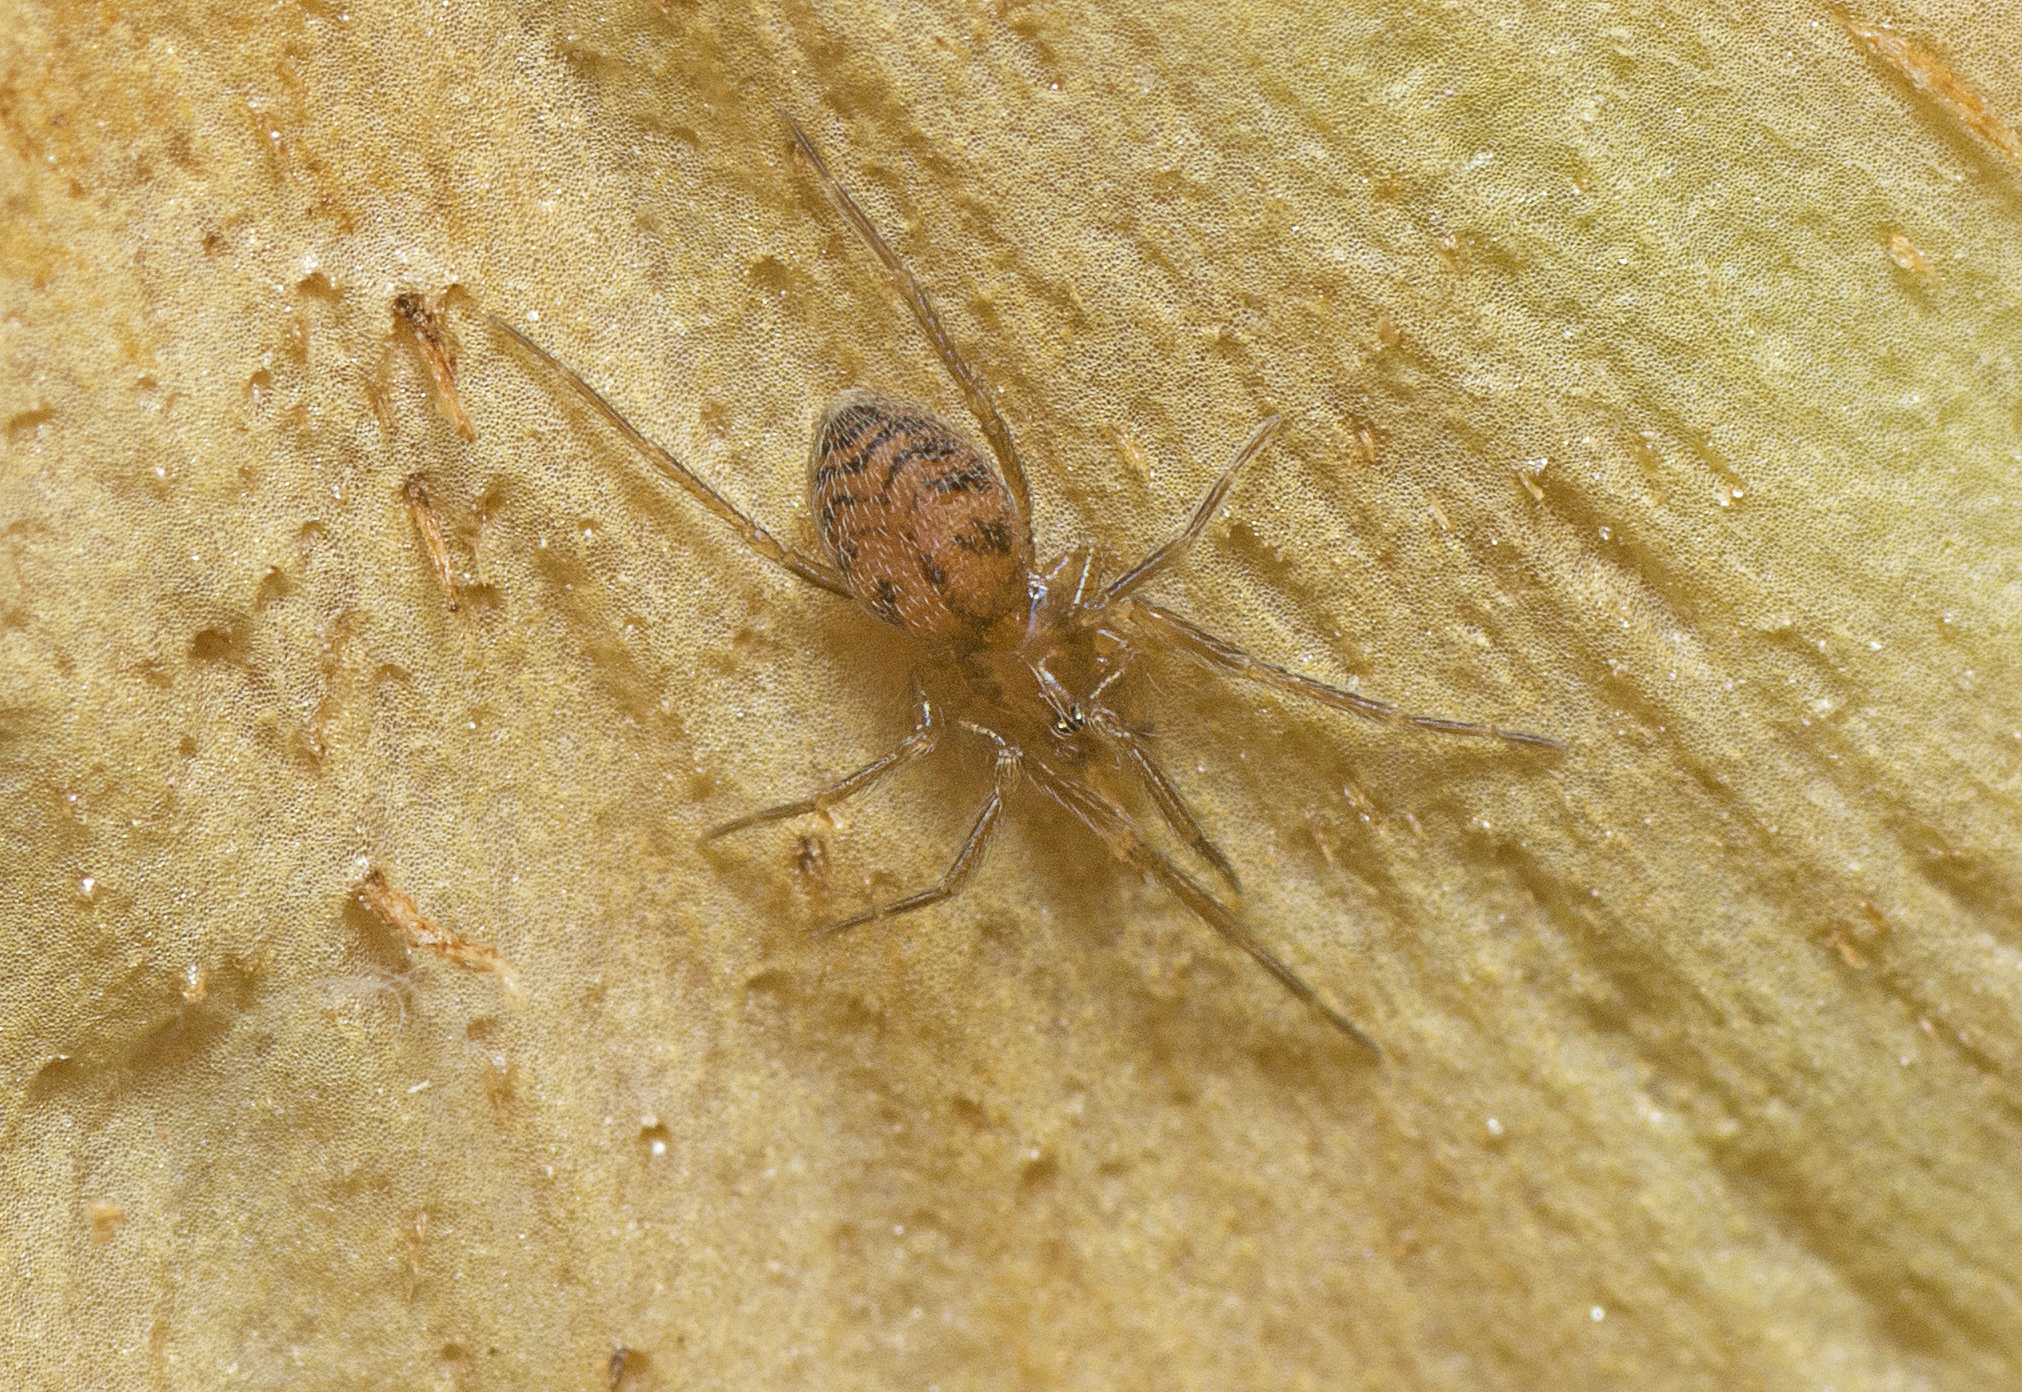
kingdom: Animalia
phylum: Arthropoda
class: Arachnida
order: Araneae
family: Hahniidae
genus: Scotospilus
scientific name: Scotospilus ampullarius
